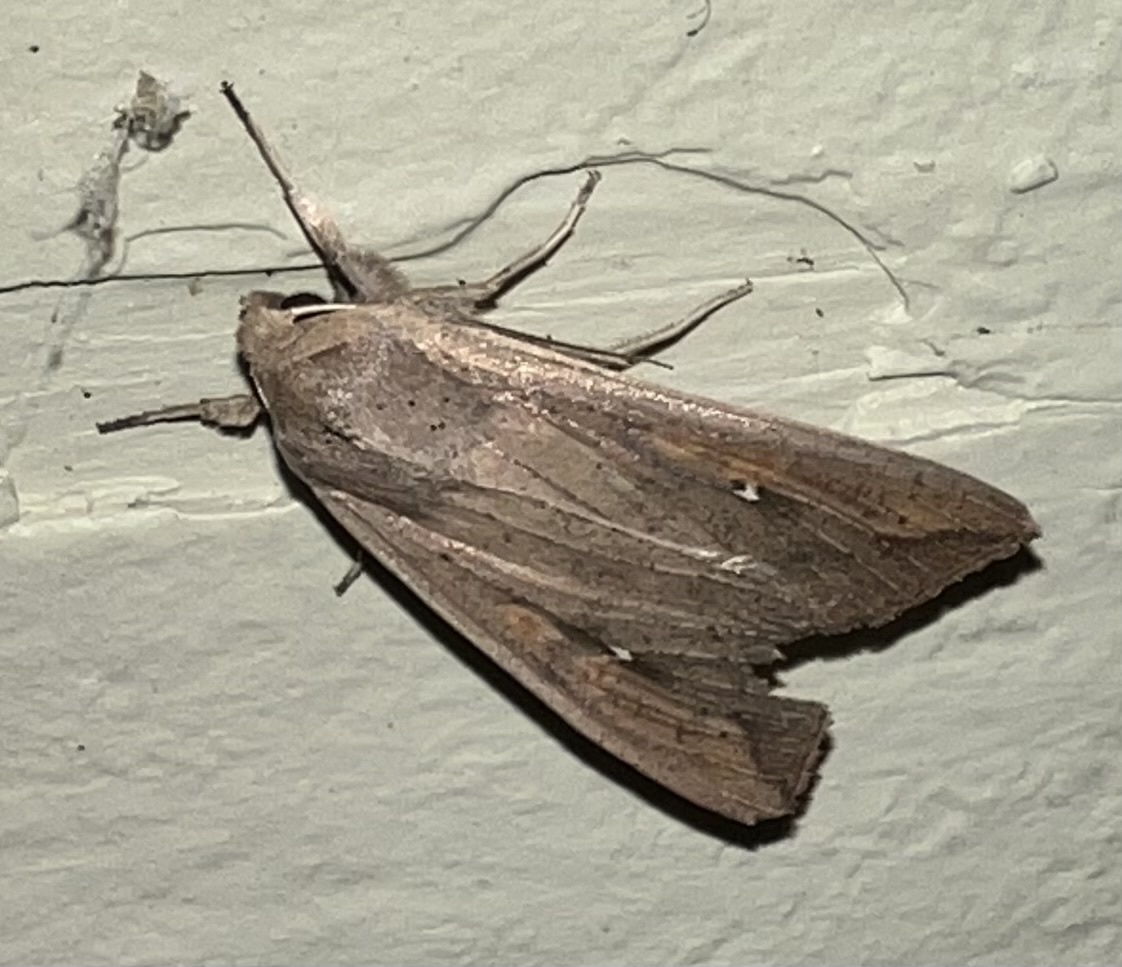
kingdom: Animalia
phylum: Arthropoda
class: Insecta
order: Lepidoptera
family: Noctuidae
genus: Mythimna
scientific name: Mythimna unipuncta
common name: White-speck
